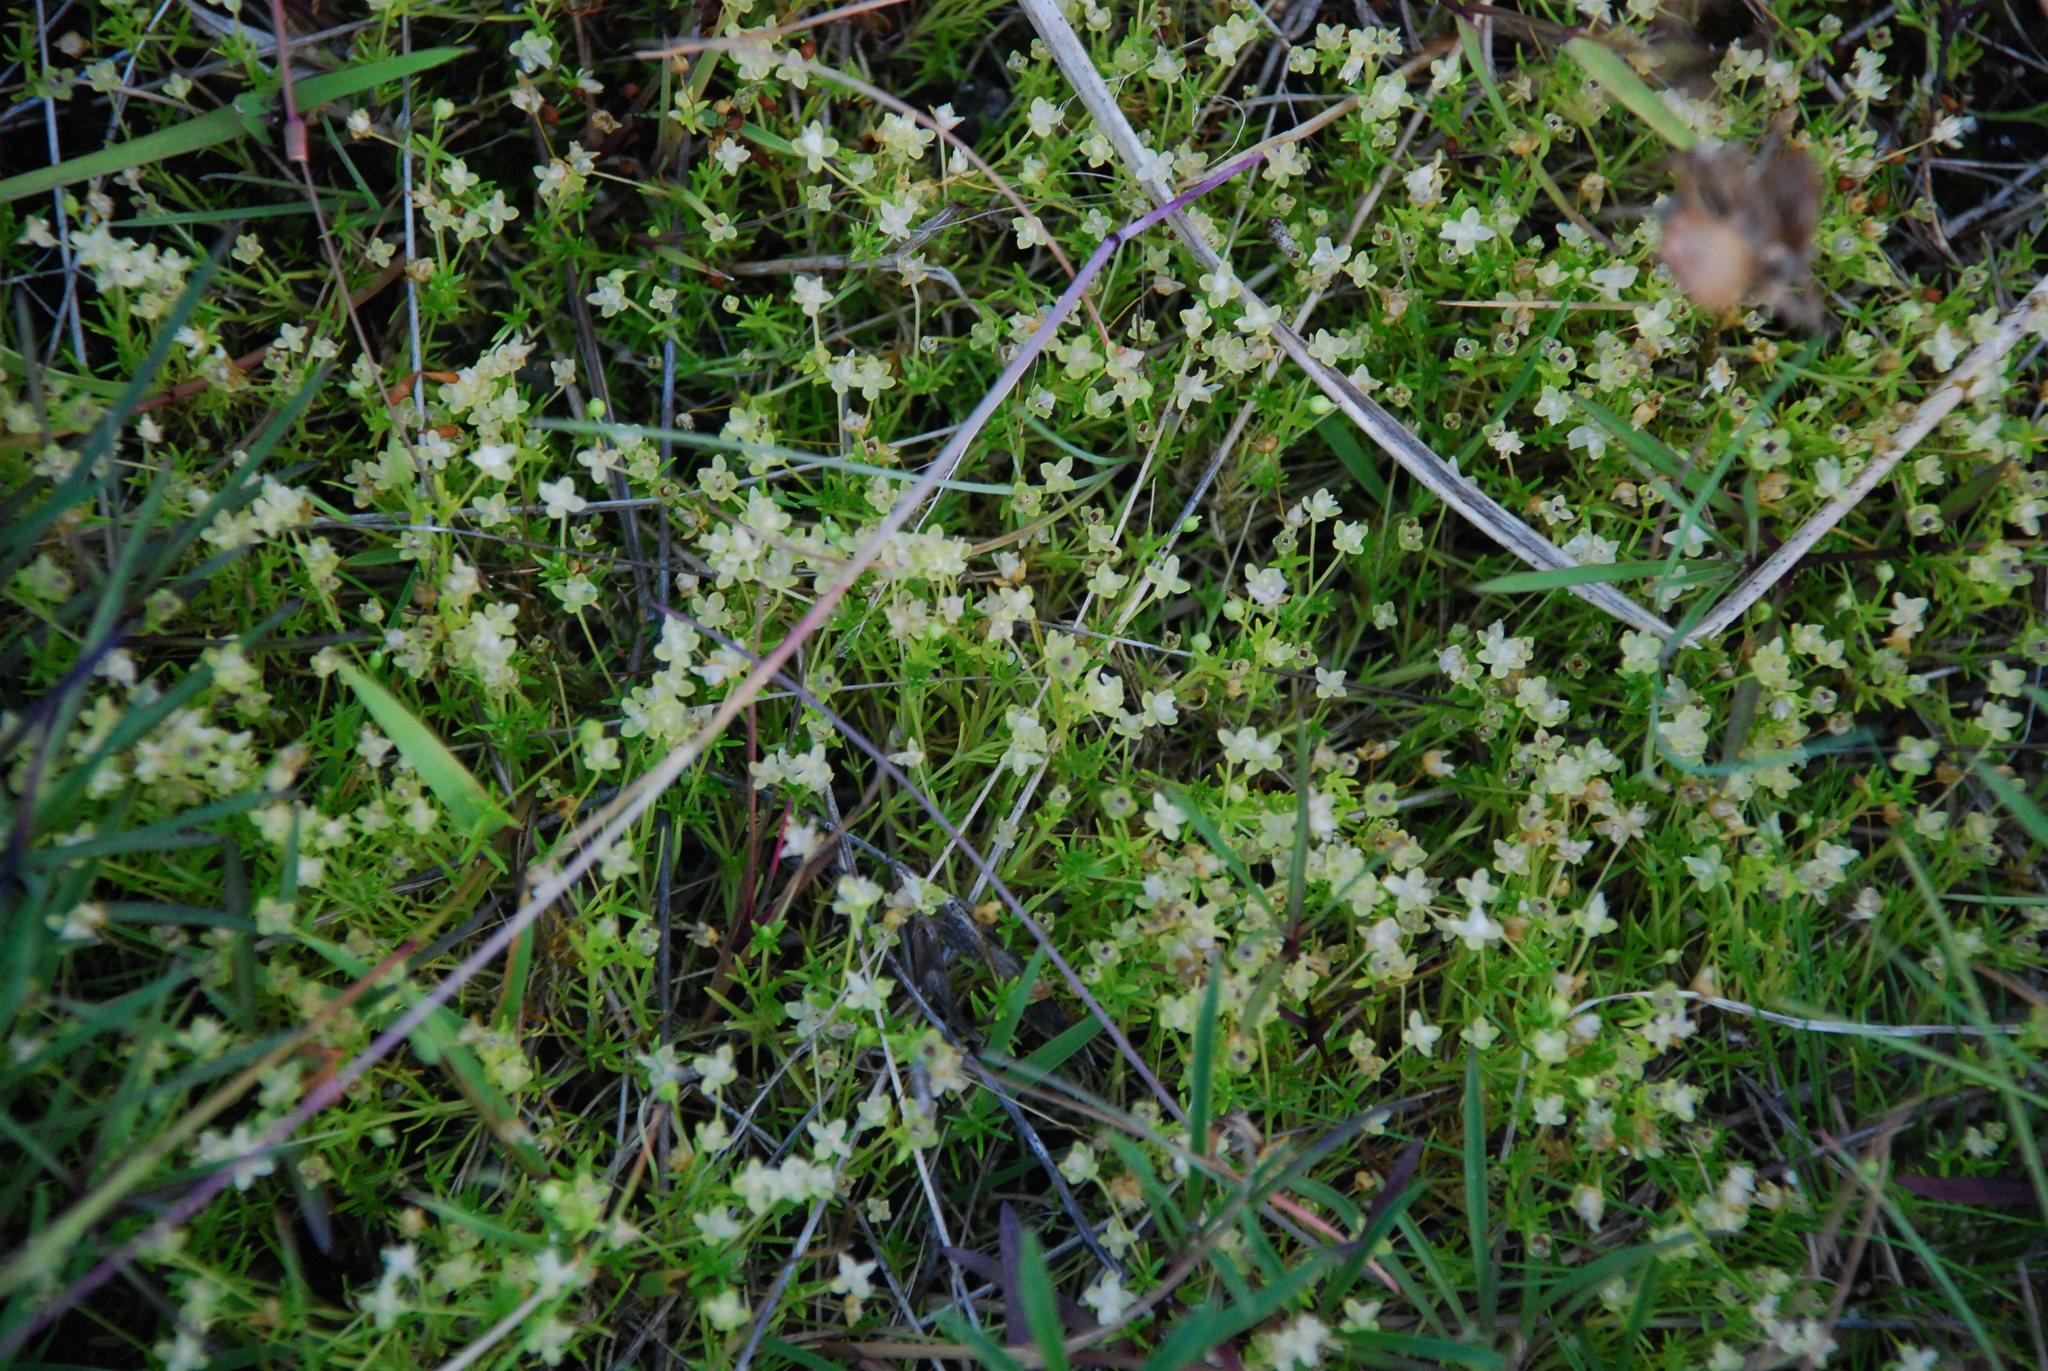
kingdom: Plantae
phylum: Tracheophyta
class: Magnoliopsida
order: Caryophyllales
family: Caryophyllaceae
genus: Sagina
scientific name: Sagina procumbens
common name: Procumbent pearlwort
